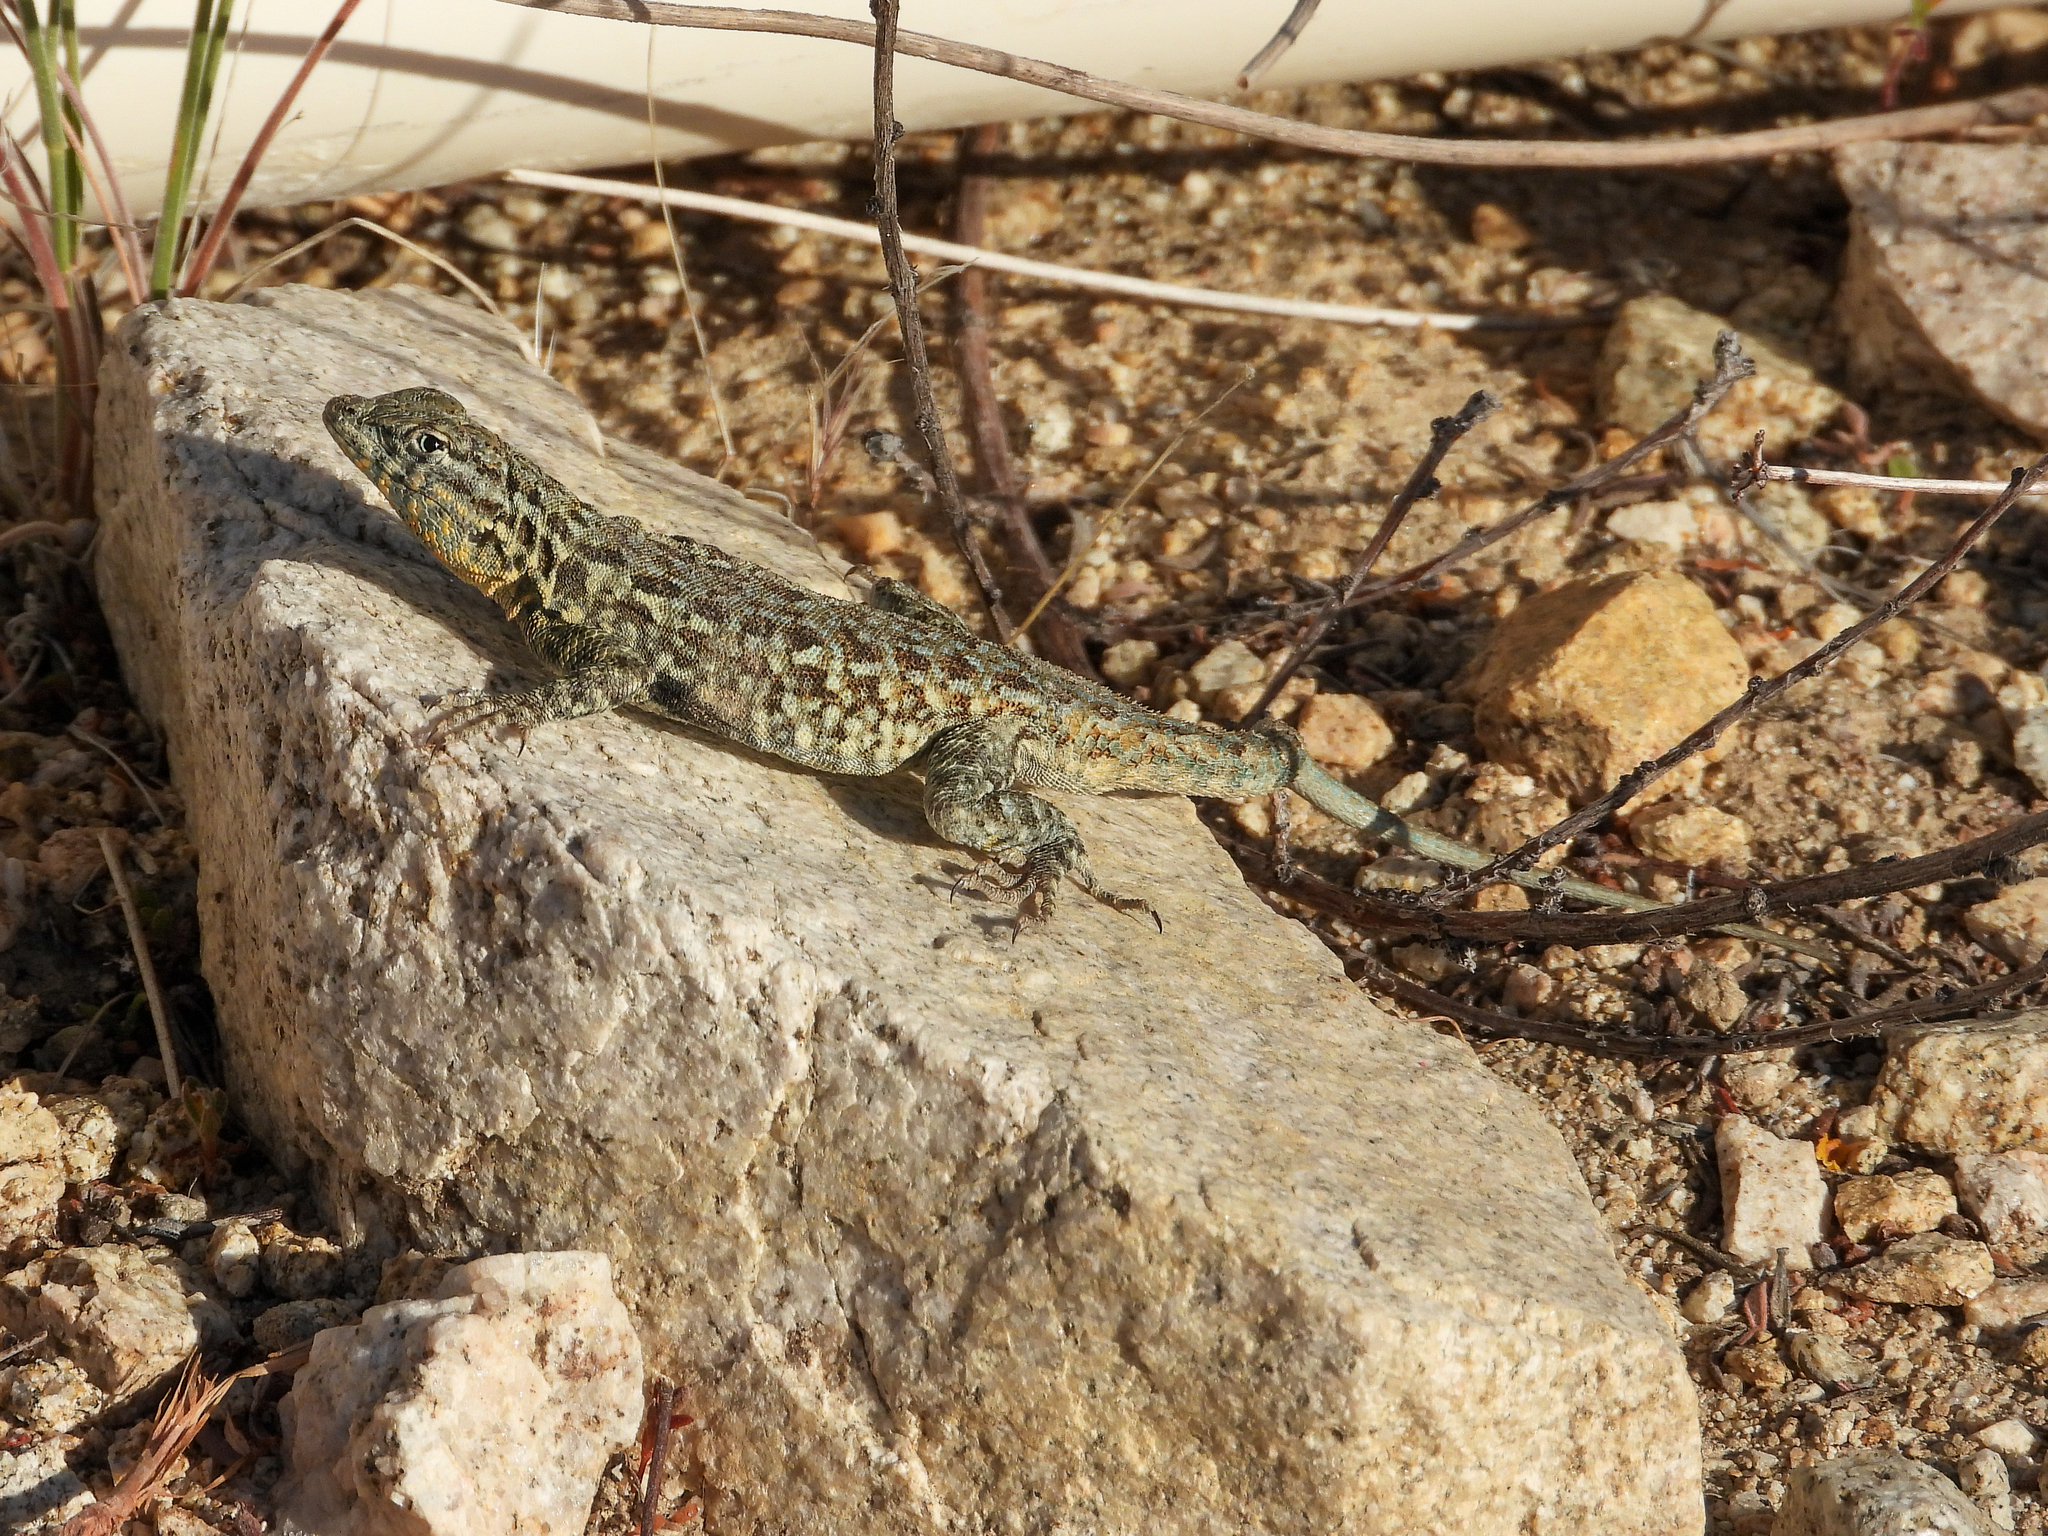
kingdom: Animalia
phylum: Chordata
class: Squamata
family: Phrynosomatidae
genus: Uta
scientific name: Uta stansburiana
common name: Side-blotched lizard
